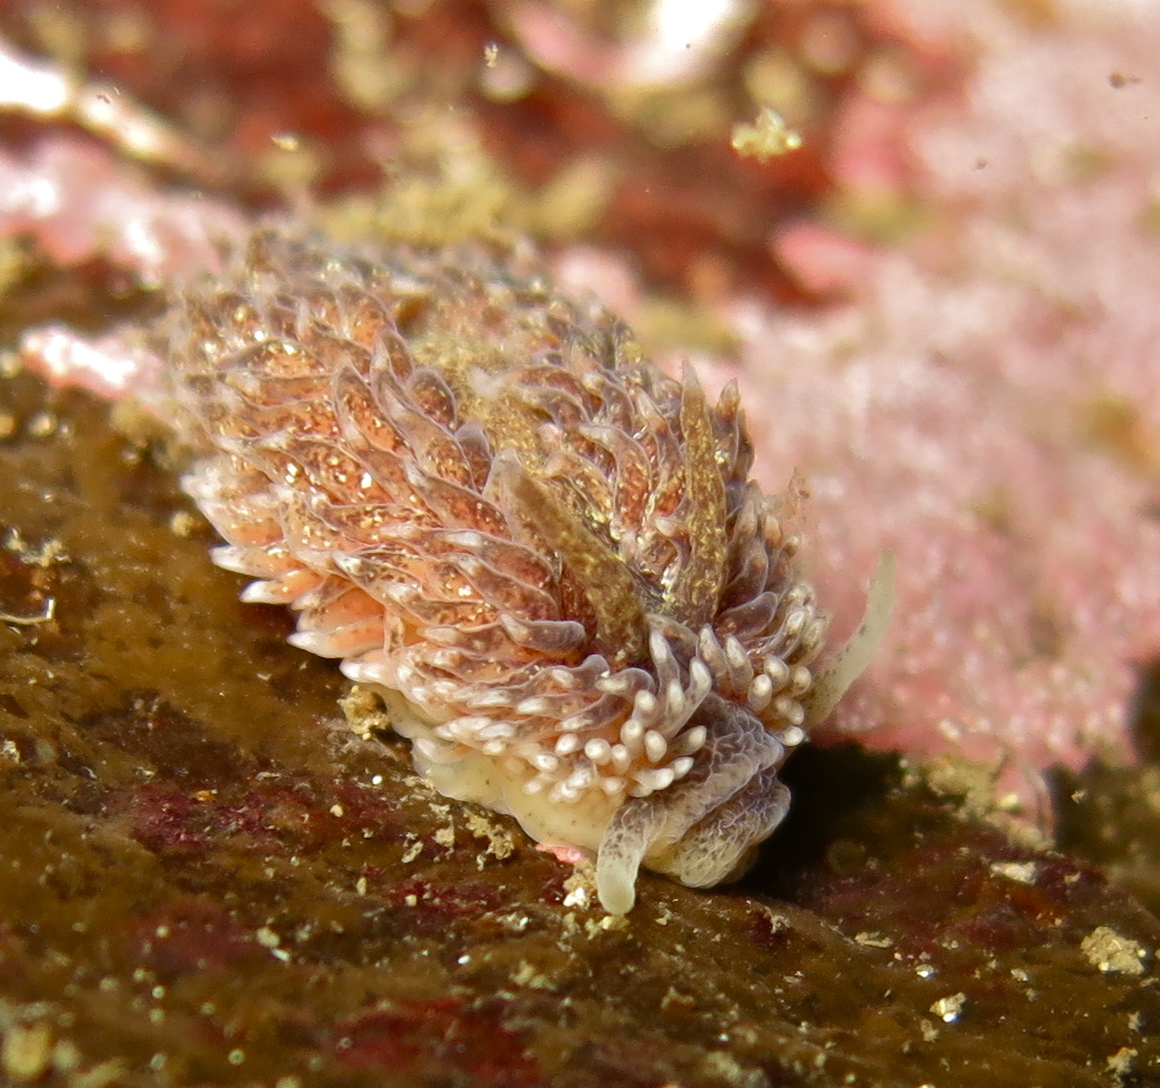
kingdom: Animalia
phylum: Mollusca
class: Gastropoda
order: Nudibranchia
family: Aeolidiidae
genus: Aeolidia
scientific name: Aeolidia papillosa
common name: Common grey sea slug
